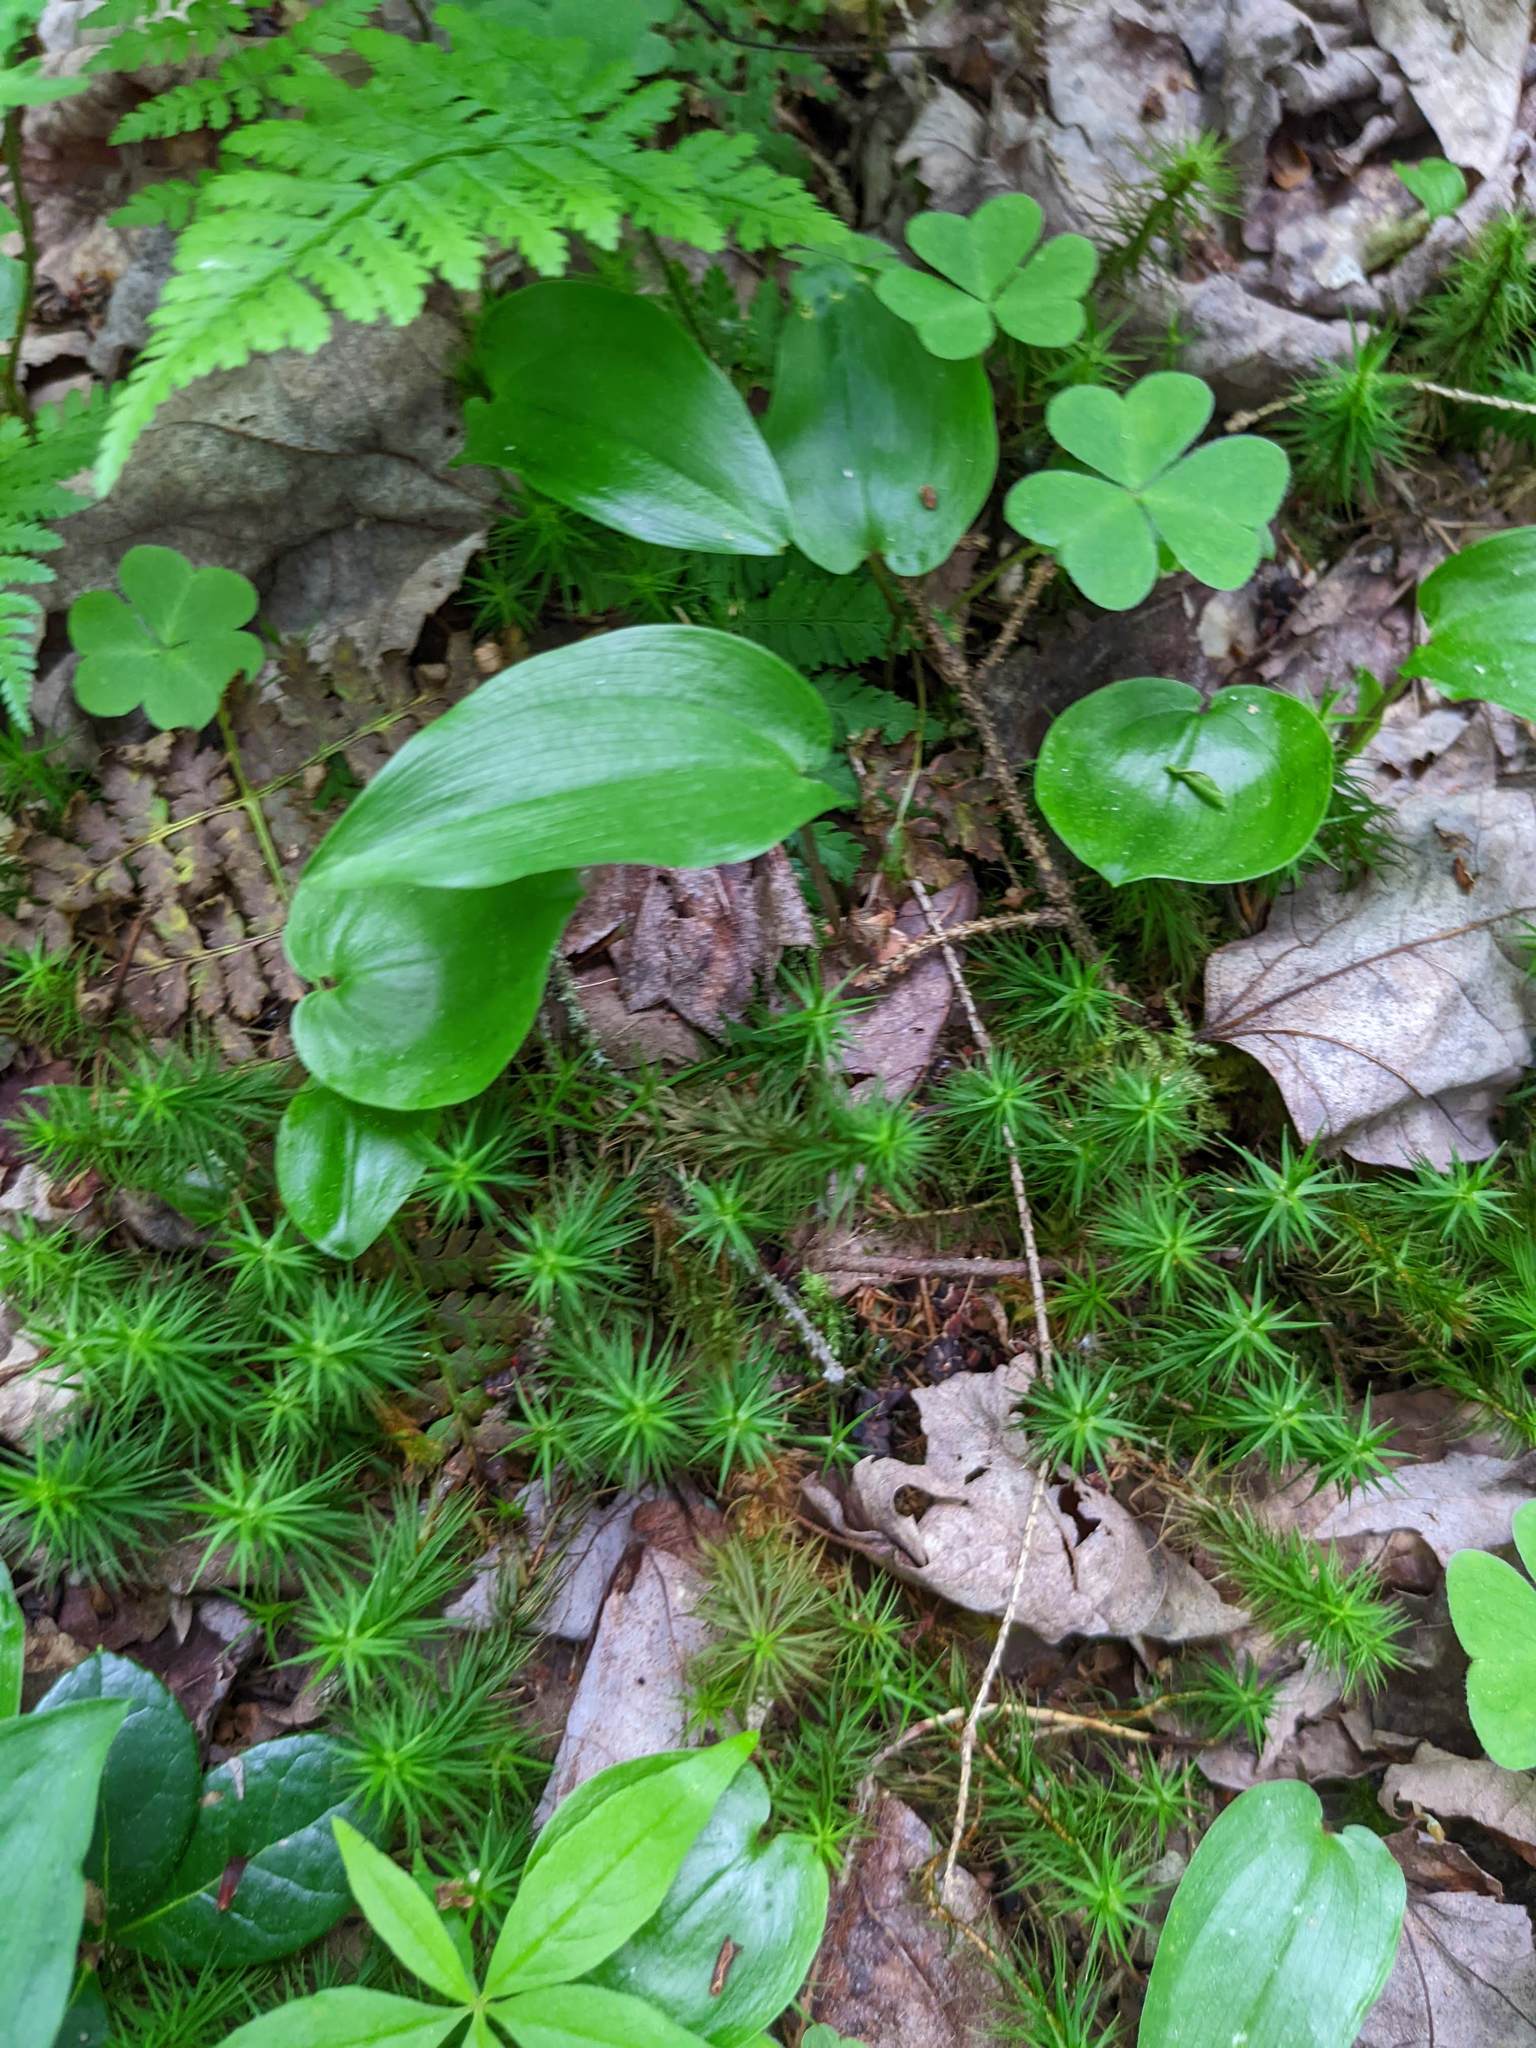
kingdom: Plantae
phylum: Tracheophyta
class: Liliopsida
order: Asparagales
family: Asparagaceae
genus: Maianthemum
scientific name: Maianthemum canadense
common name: False lily-of-the-valley
